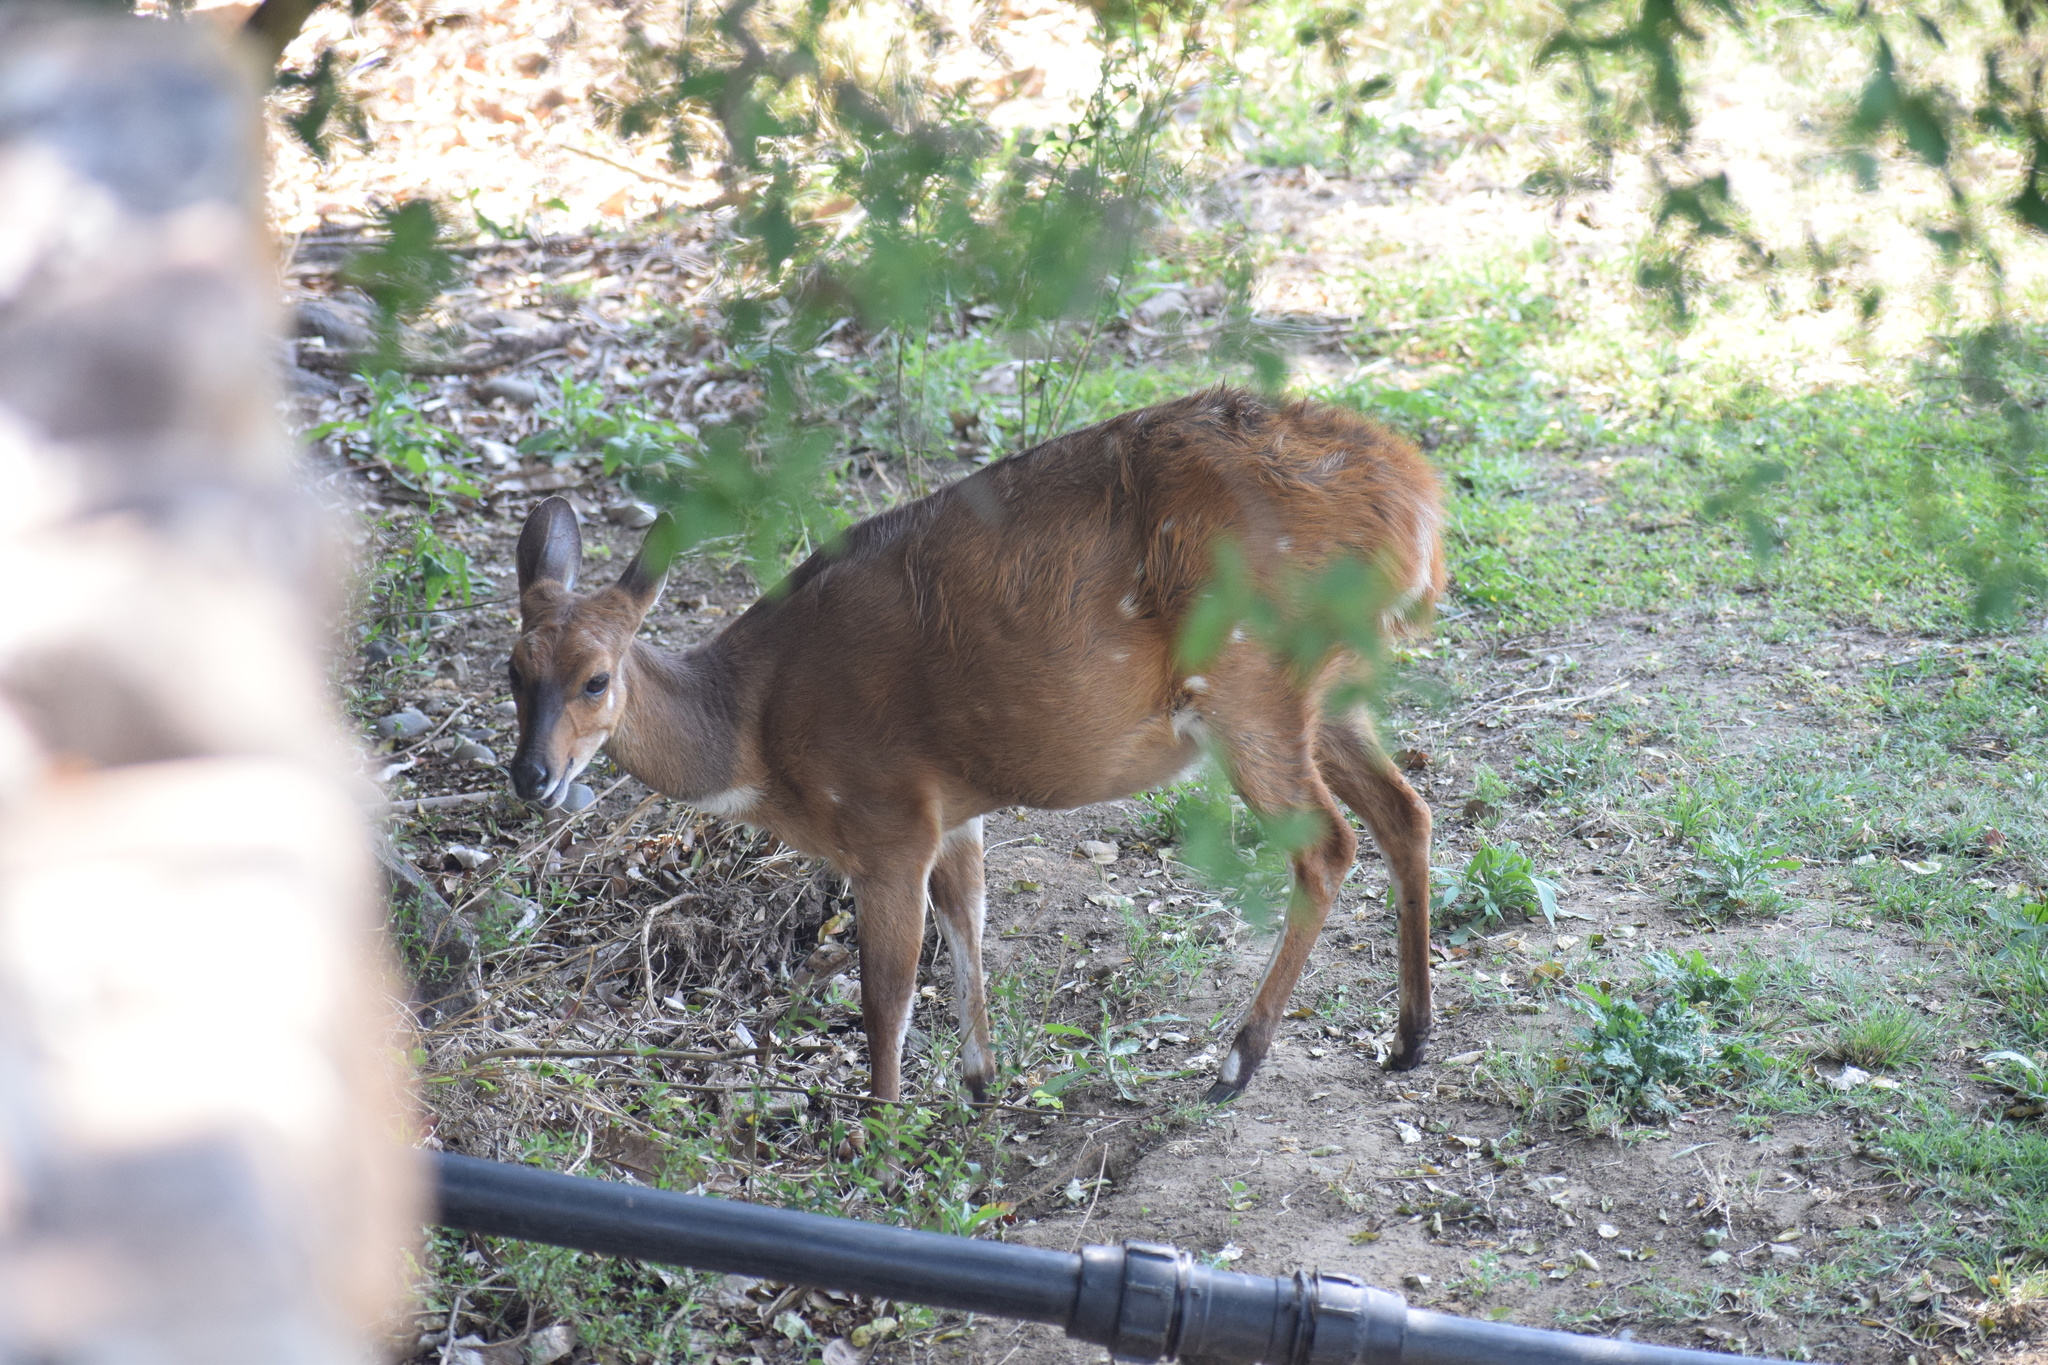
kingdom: Animalia
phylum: Chordata
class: Mammalia
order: Artiodactyla
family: Bovidae
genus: Tragelaphus
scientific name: Tragelaphus scriptus
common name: Bushbuck
